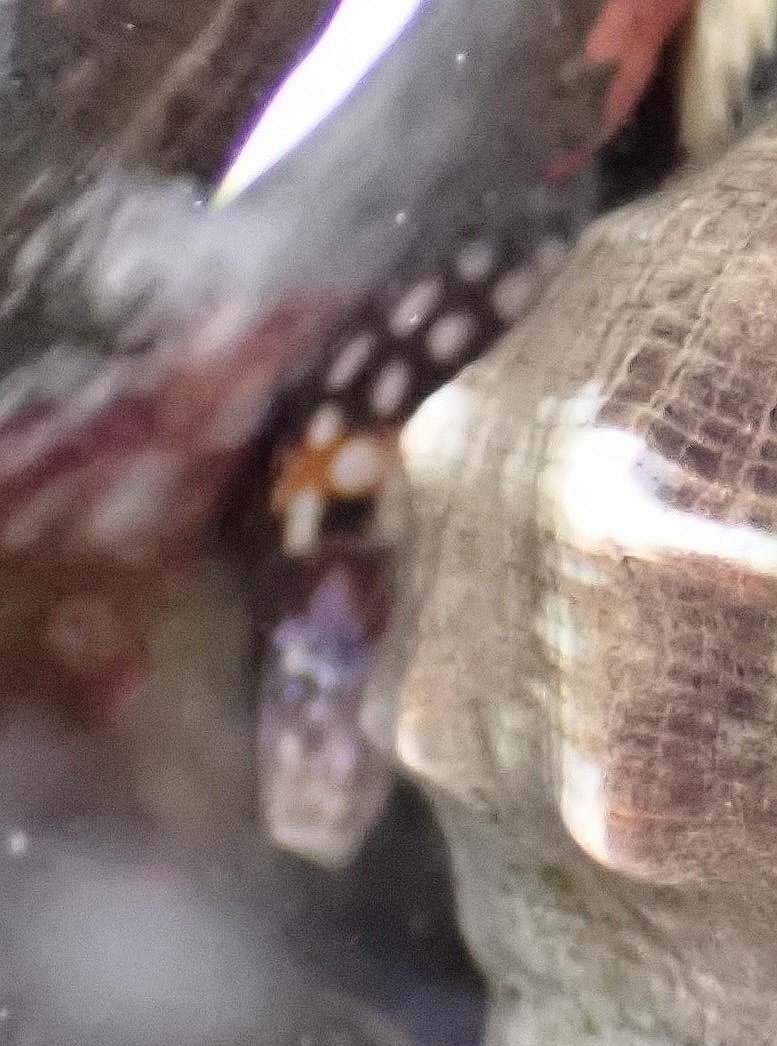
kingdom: Animalia
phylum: Mollusca
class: Gastropoda
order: Neogastropoda
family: Columbellidae
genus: Mitrella
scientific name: Mitrella ocellata
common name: White-spot dovesnail
